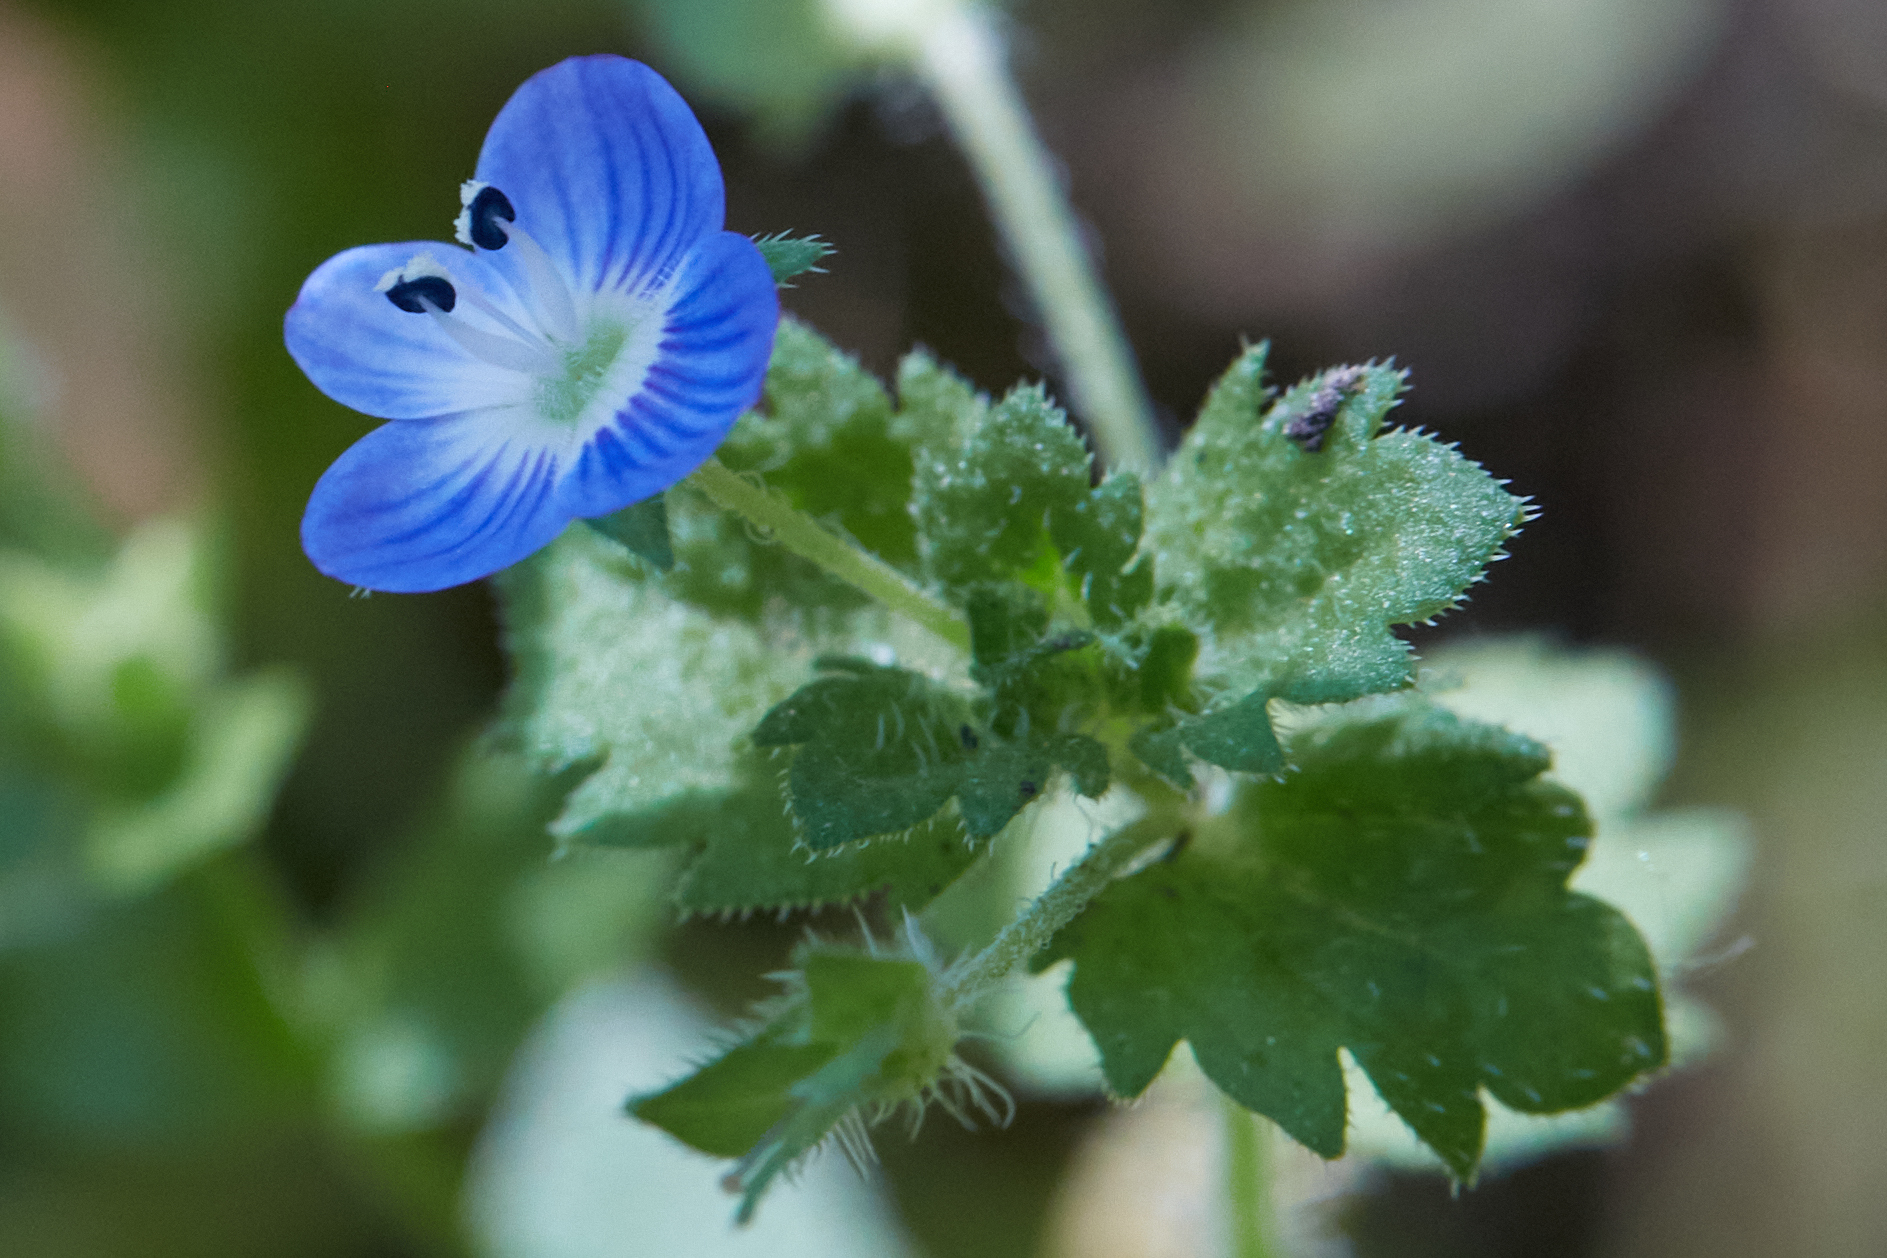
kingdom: Plantae
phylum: Tracheophyta
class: Magnoliopsida
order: Lamiales
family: Plantaginaceae
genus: Veronica
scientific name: Veronica persica
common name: Common field-speedwell
